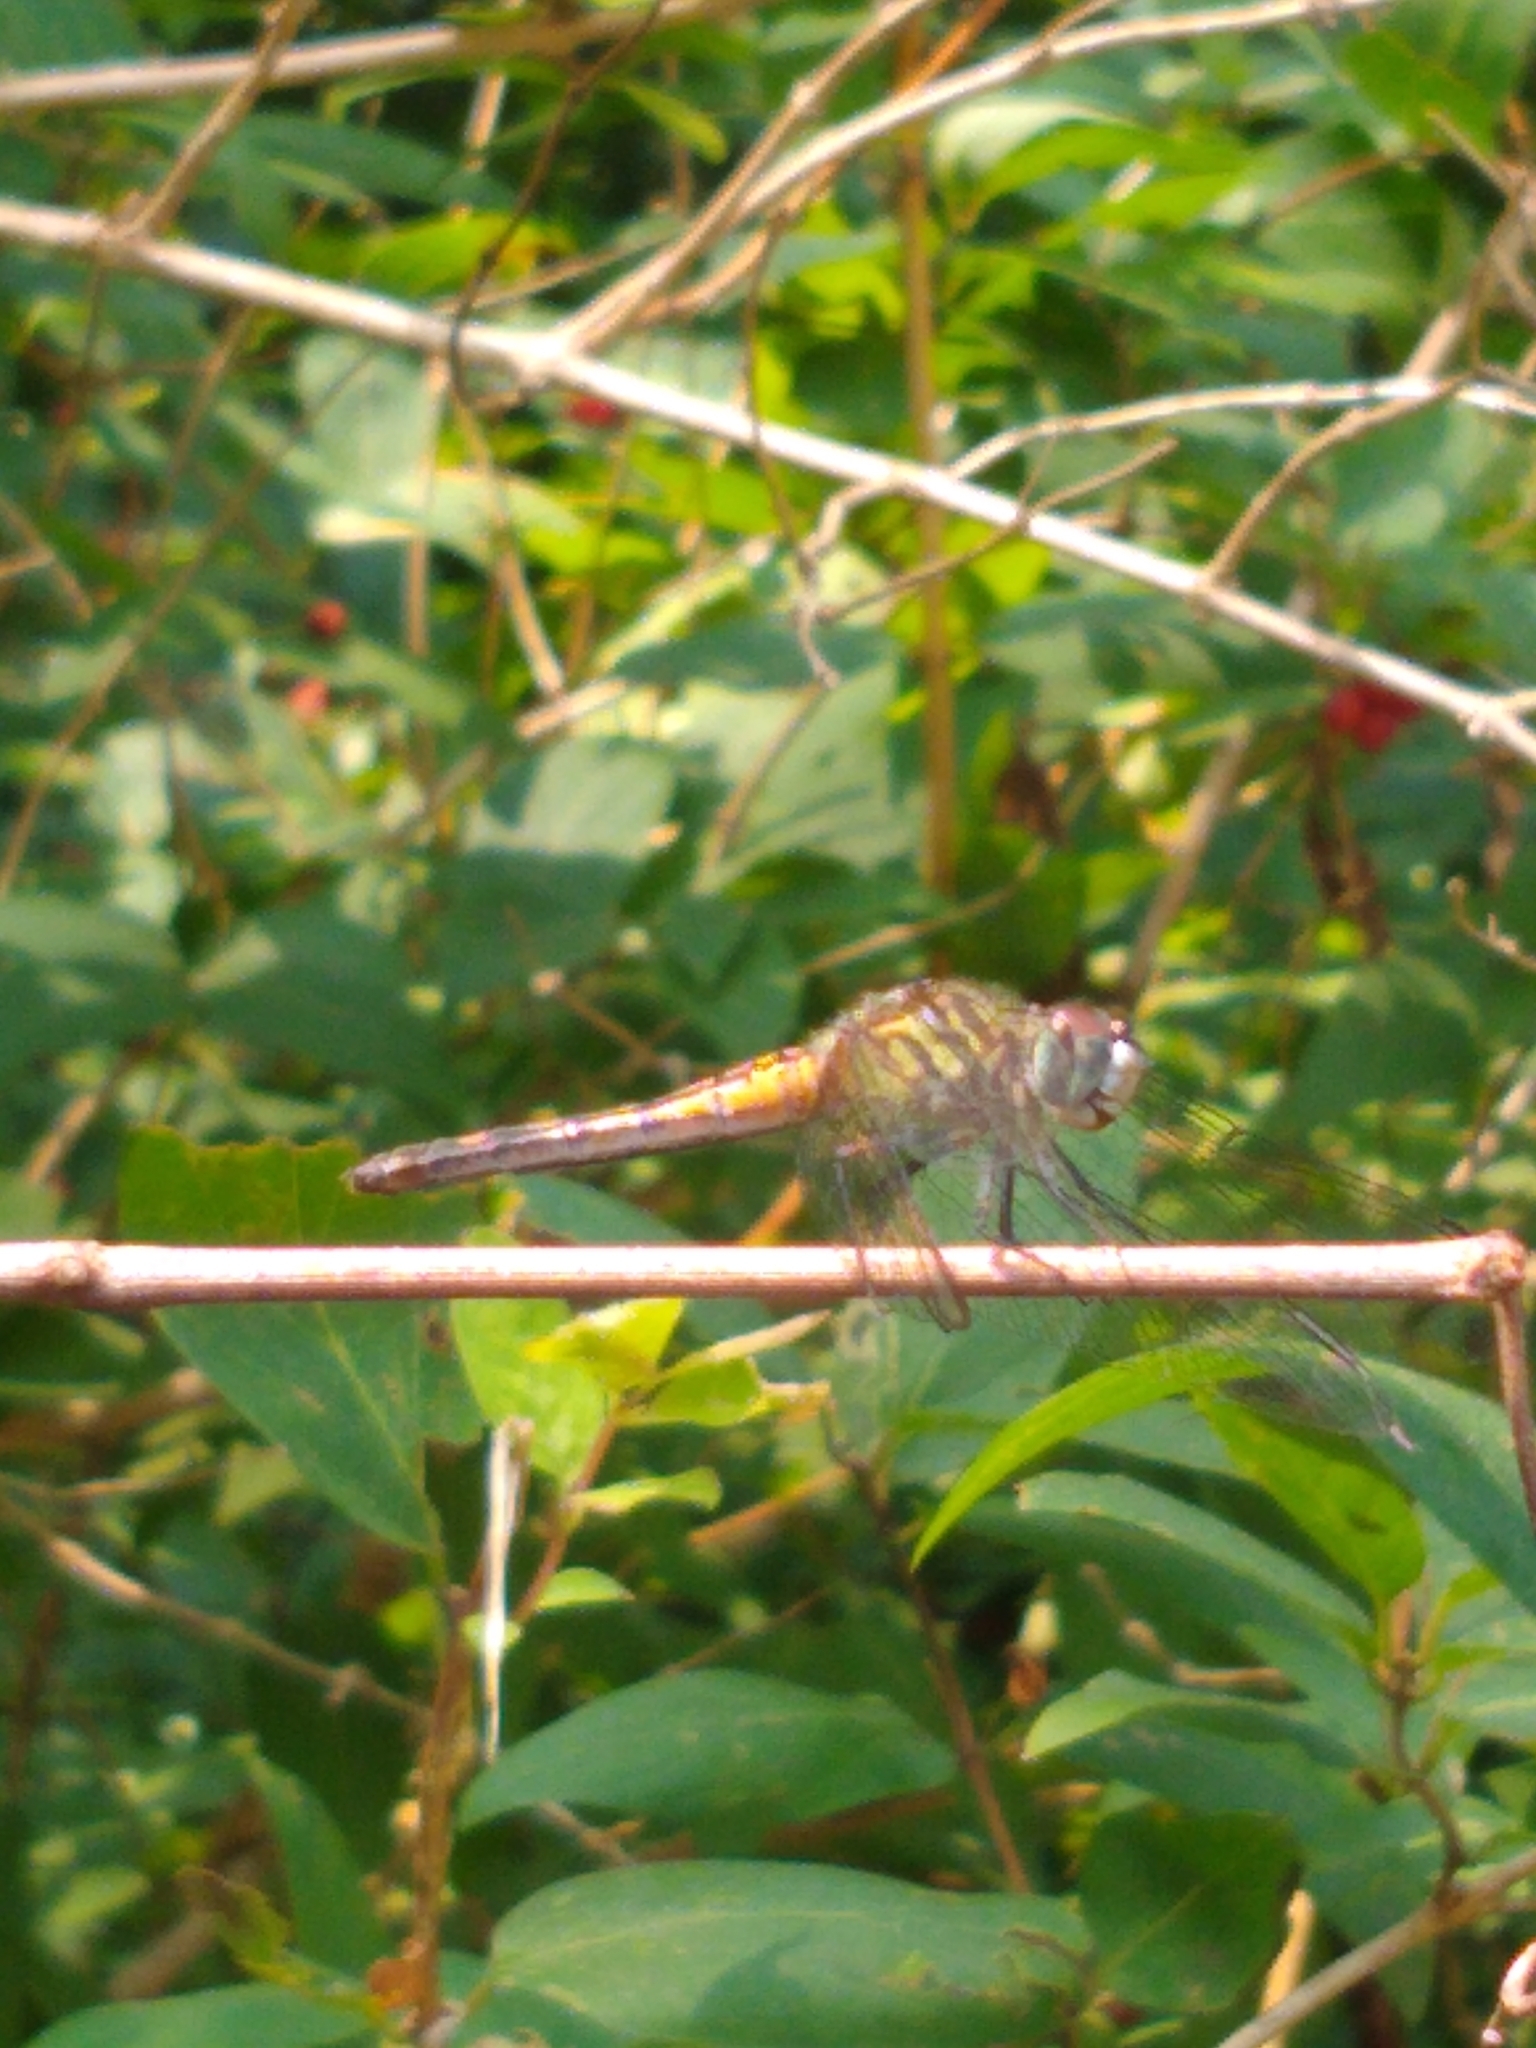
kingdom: Animalia
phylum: Arthropoda
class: Insecta
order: Odonata
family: Libellulidae
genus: Pachydiplax
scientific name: Pachydiplax longipennis
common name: Blue dasher
